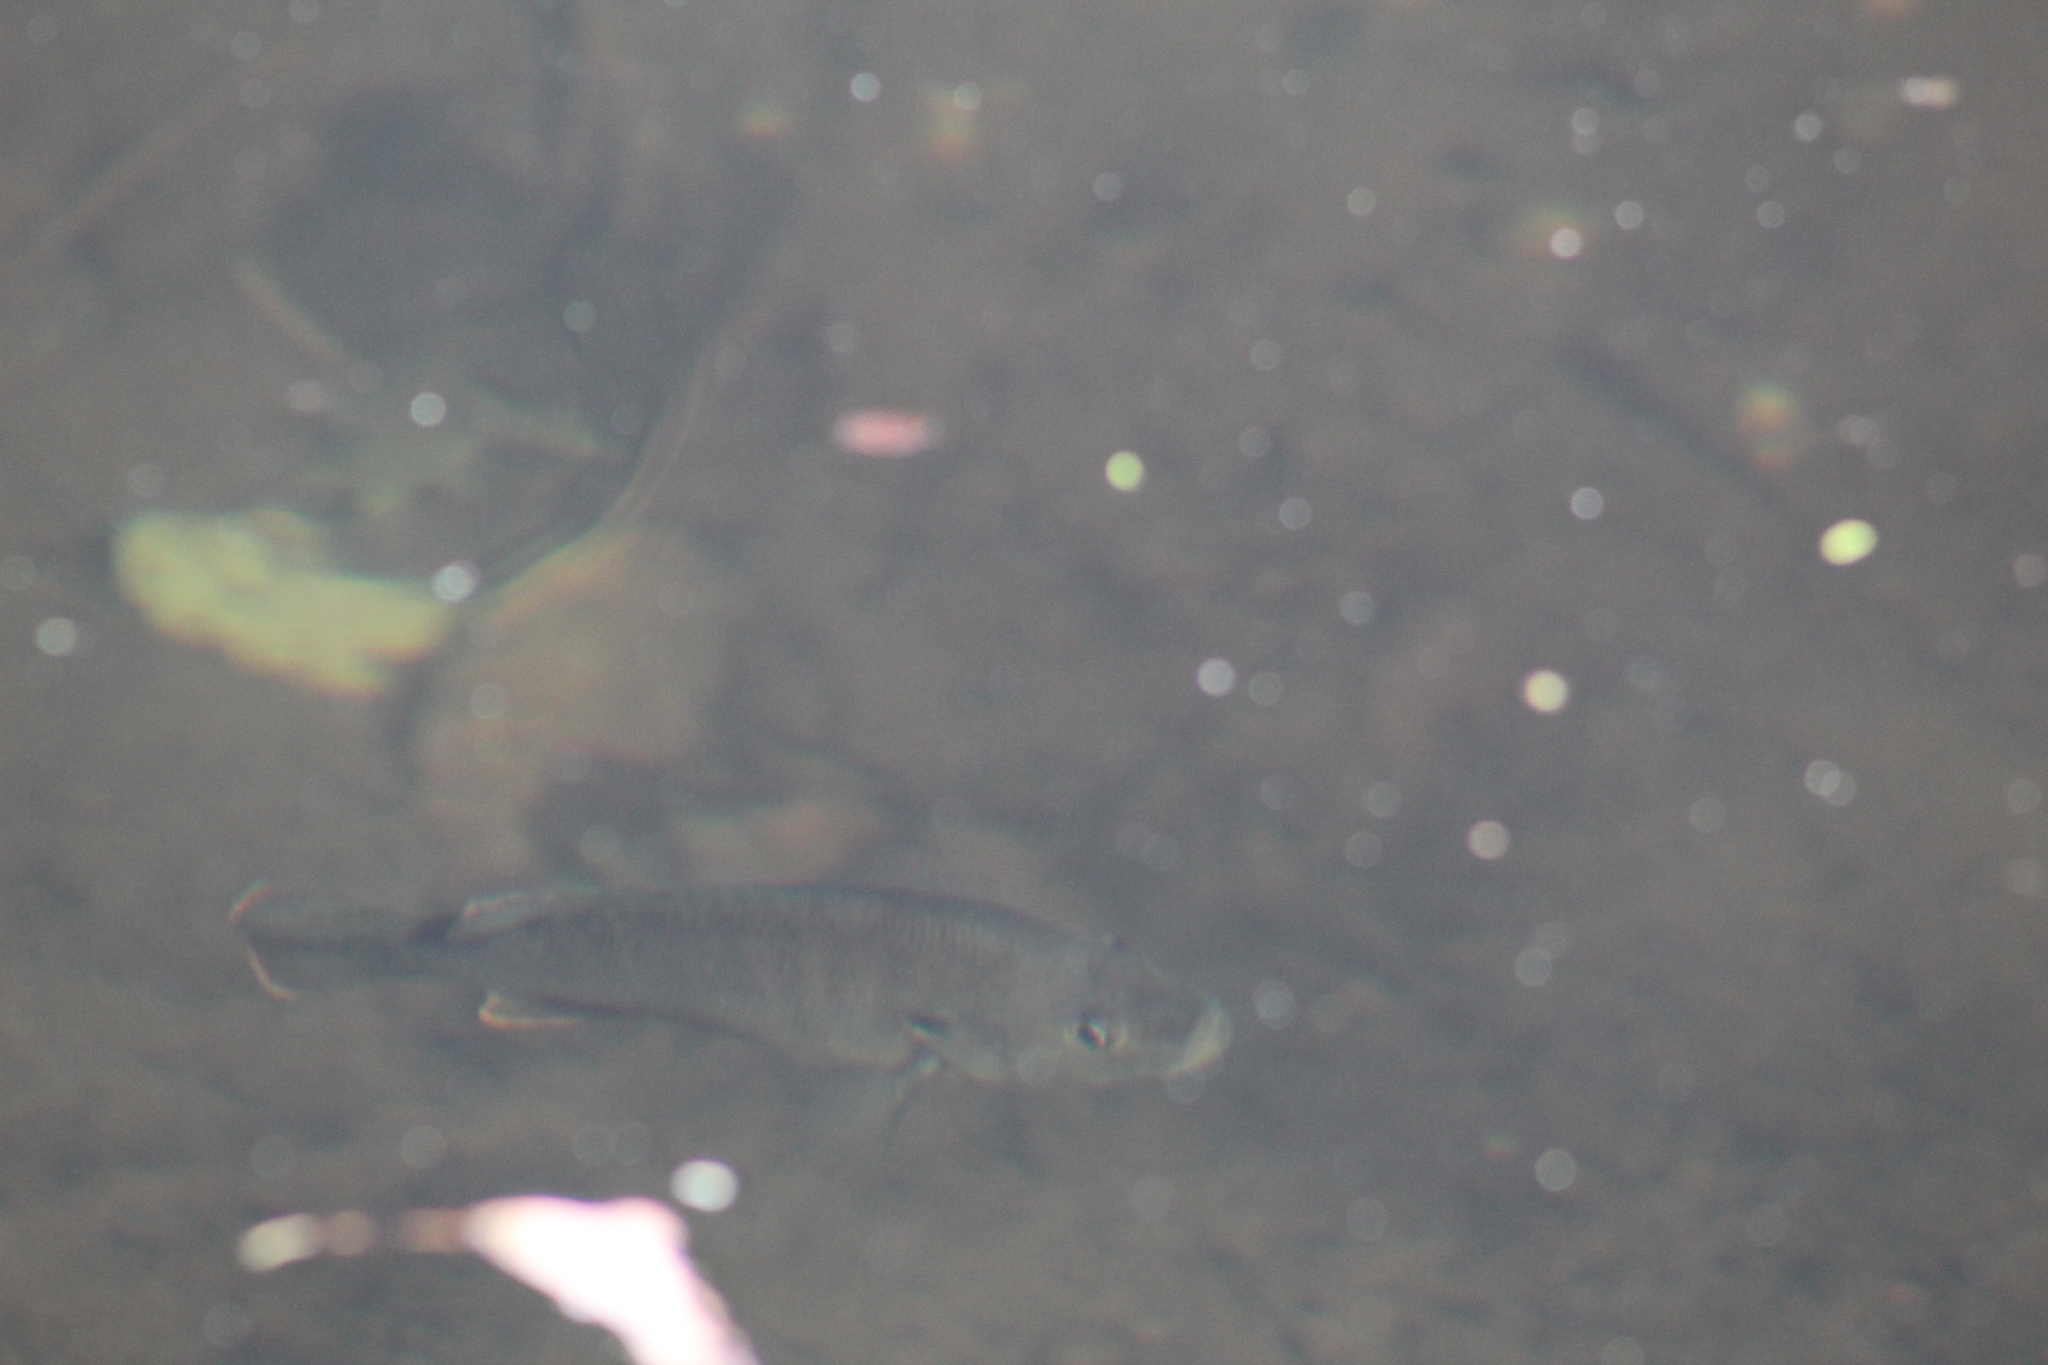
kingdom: Animalia
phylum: Chordata
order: Perciformes
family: Centrarchidae
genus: Lepomis
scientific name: Lepomis cyanellus
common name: Green sunfish
